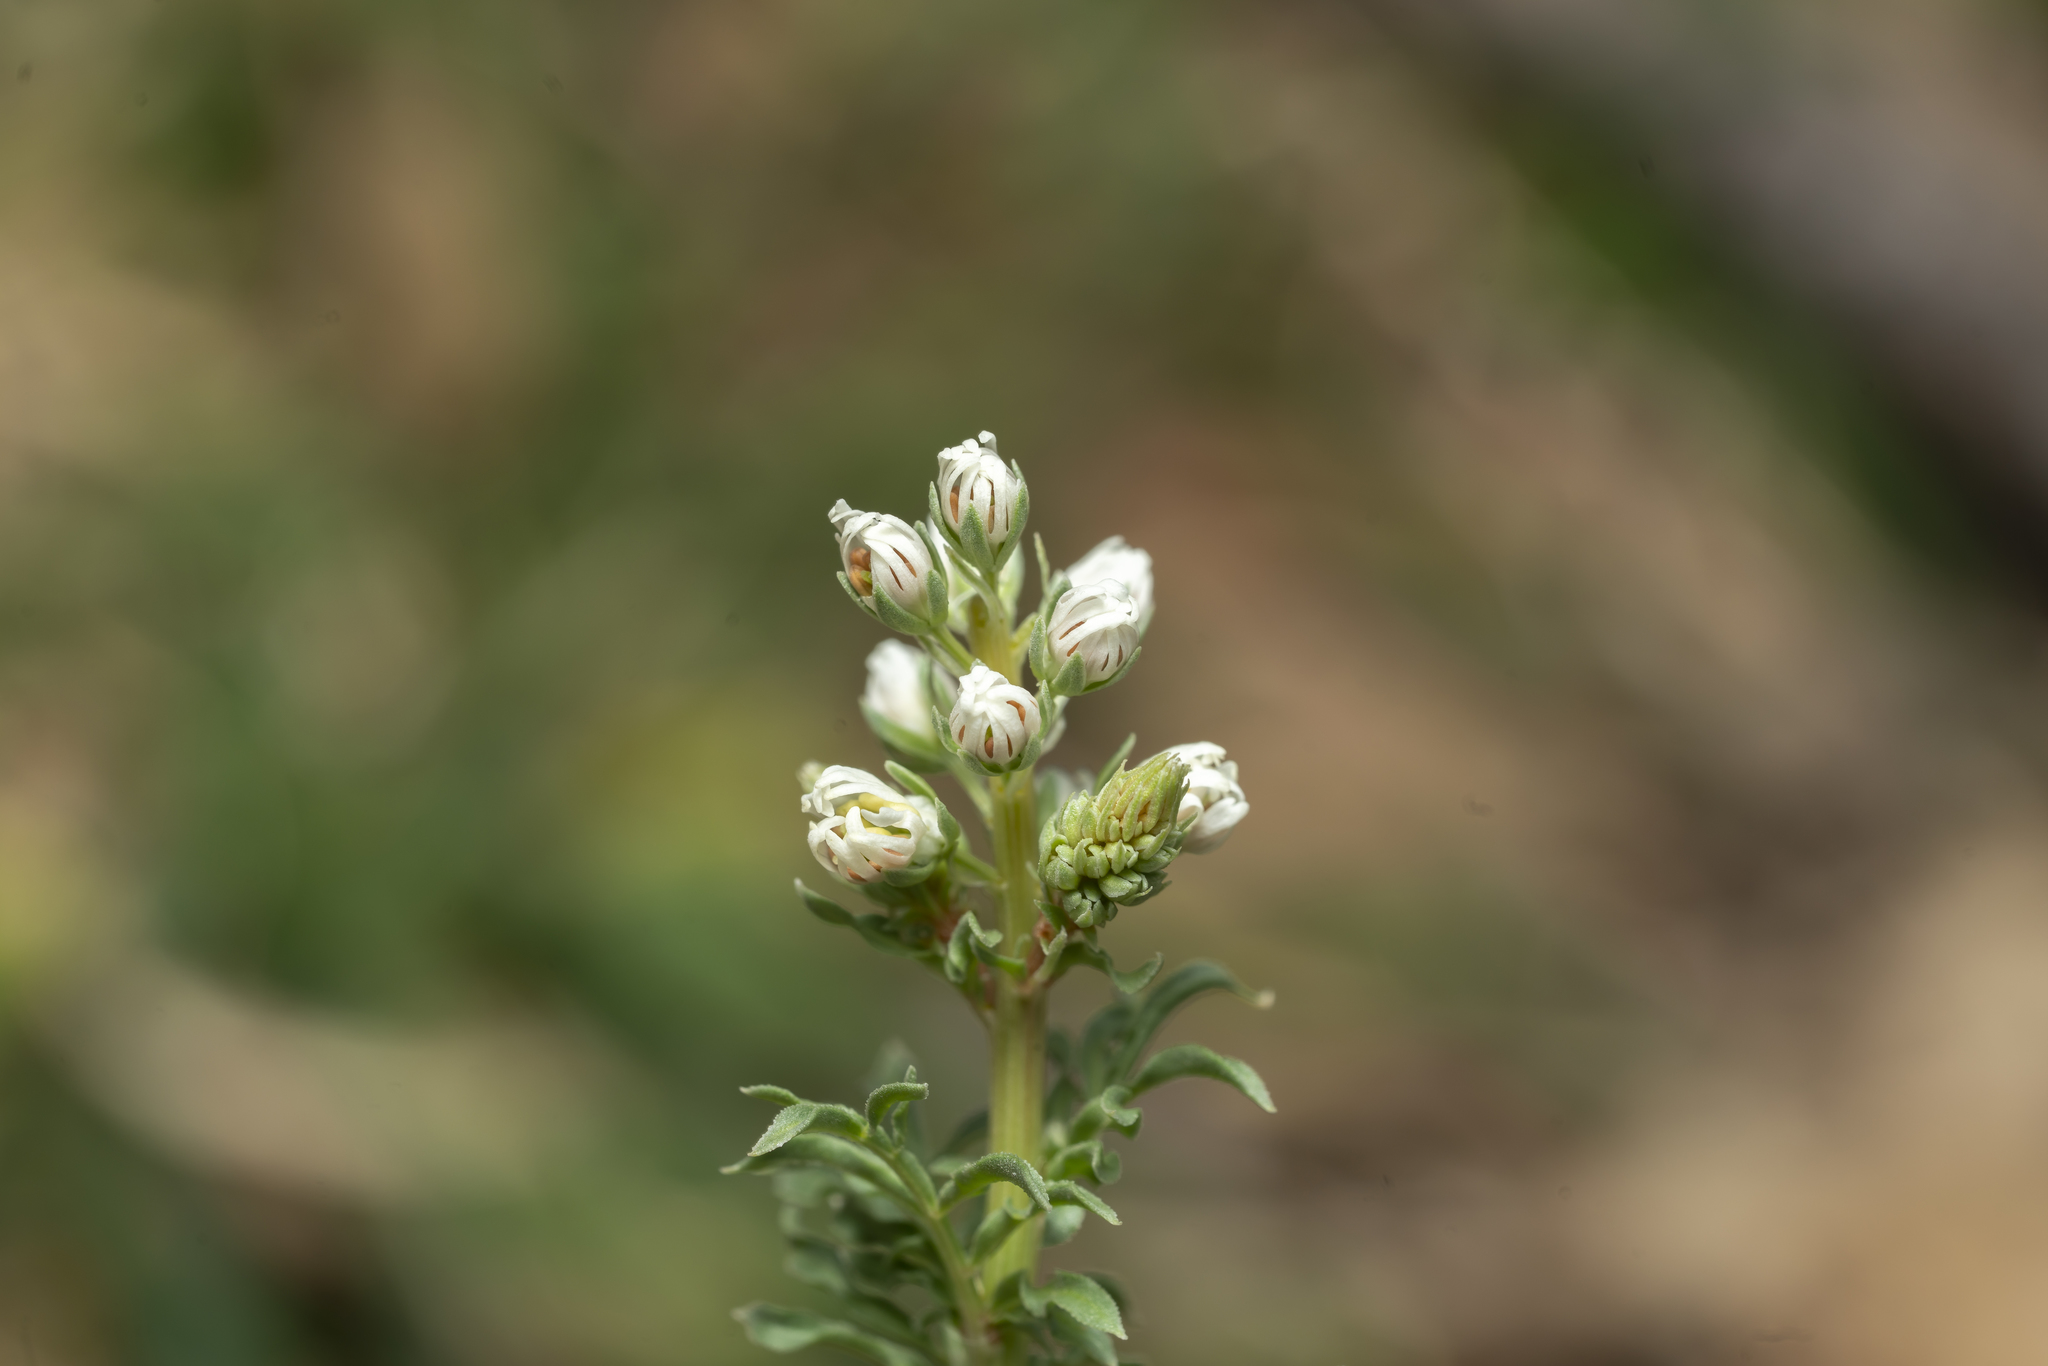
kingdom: Plantae
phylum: Tracheophyta
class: Magnoliopsida
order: Brassicales
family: Resedaceae
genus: Reseda
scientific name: Reseda alba
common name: White mignonette
